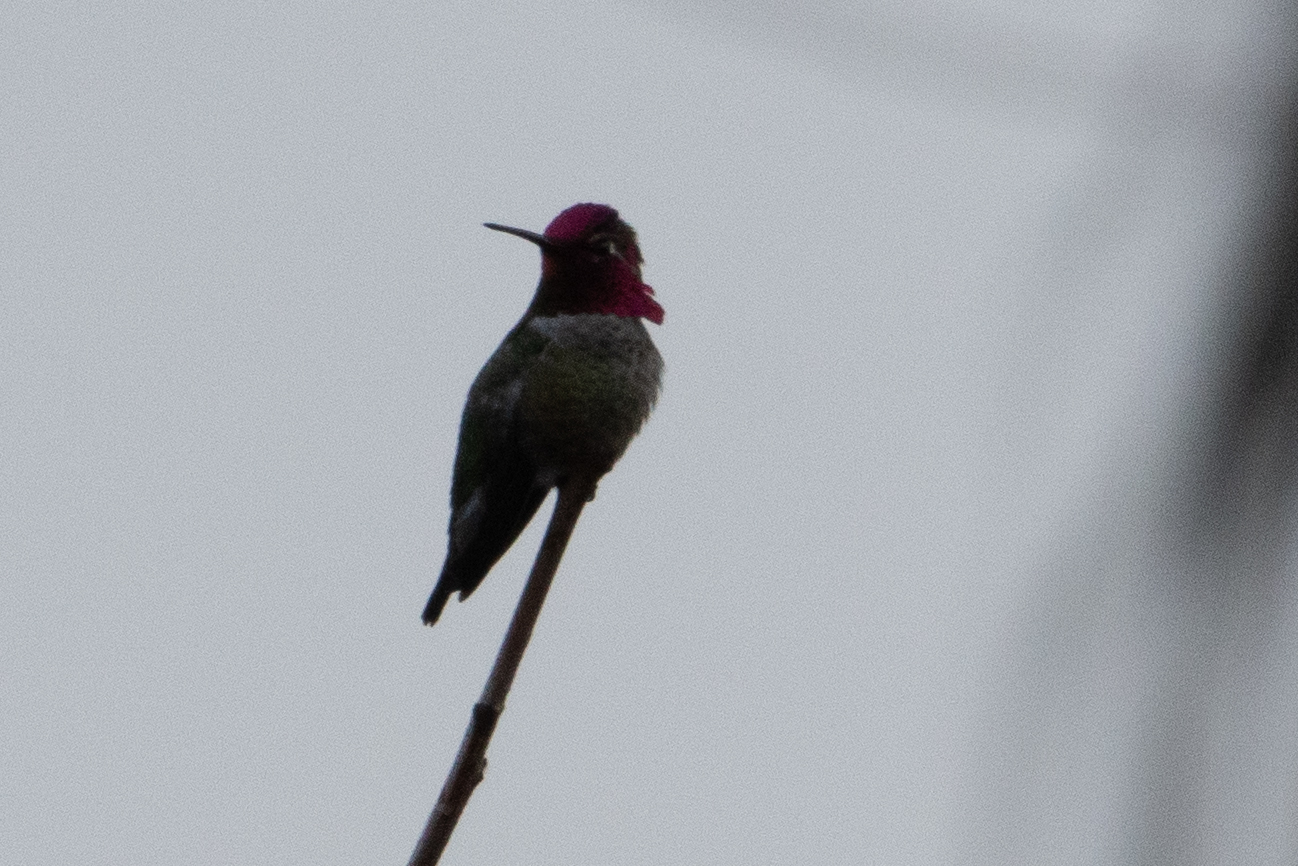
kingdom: Animalia
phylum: Chordata
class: Aves
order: Apodiformes
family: Trochilidae
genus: Calypte
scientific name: Calypte anna
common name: Anna's hummingbird
